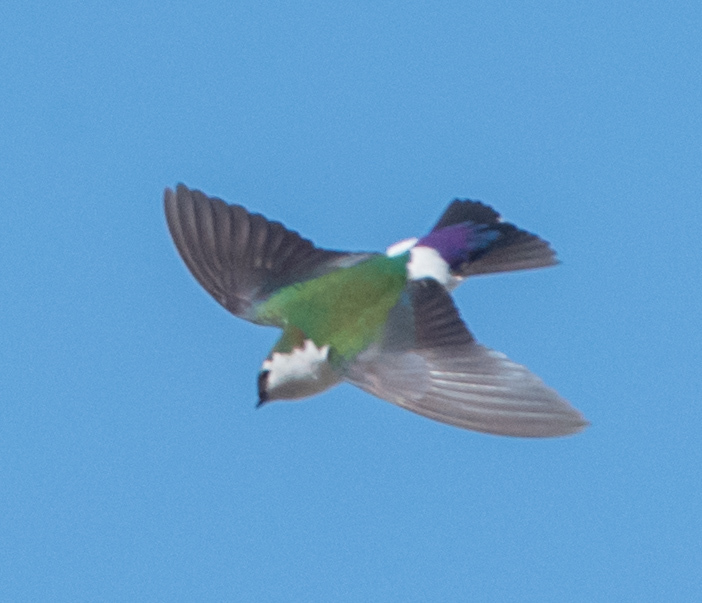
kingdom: Animalia
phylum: Chordata
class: Aves
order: Passeriformes
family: Hirundinidae
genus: Tachycineta
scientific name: Tachycineta thalassina
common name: Violet-green swallow
